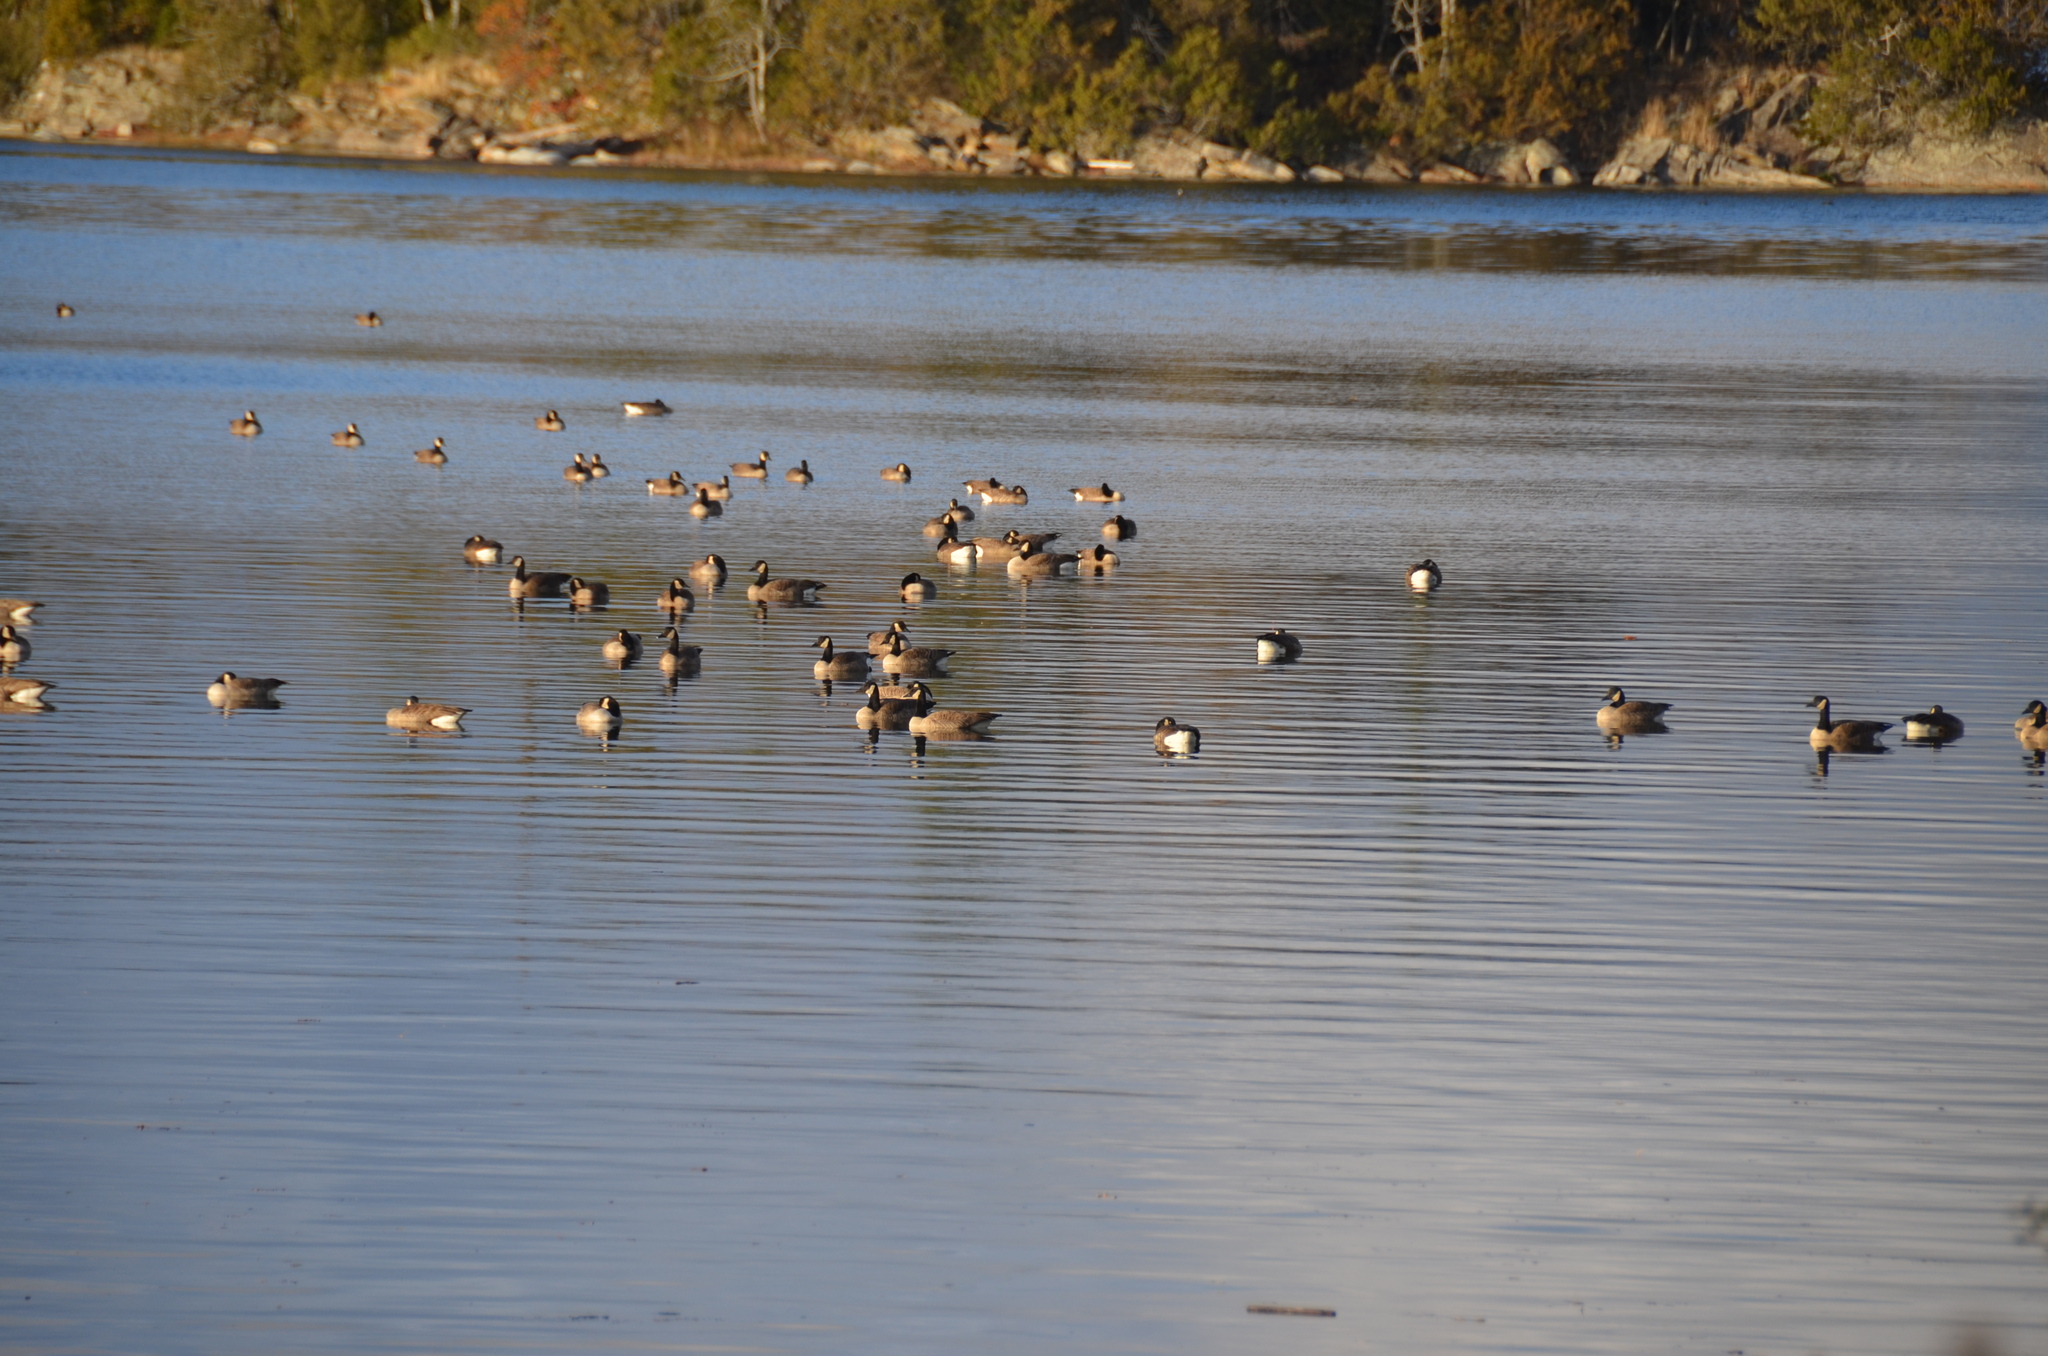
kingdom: Animalia
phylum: Chordata
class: Aves
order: Anseriformes
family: Anatidae
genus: Branta
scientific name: Branta canadensis
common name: Canada goose
